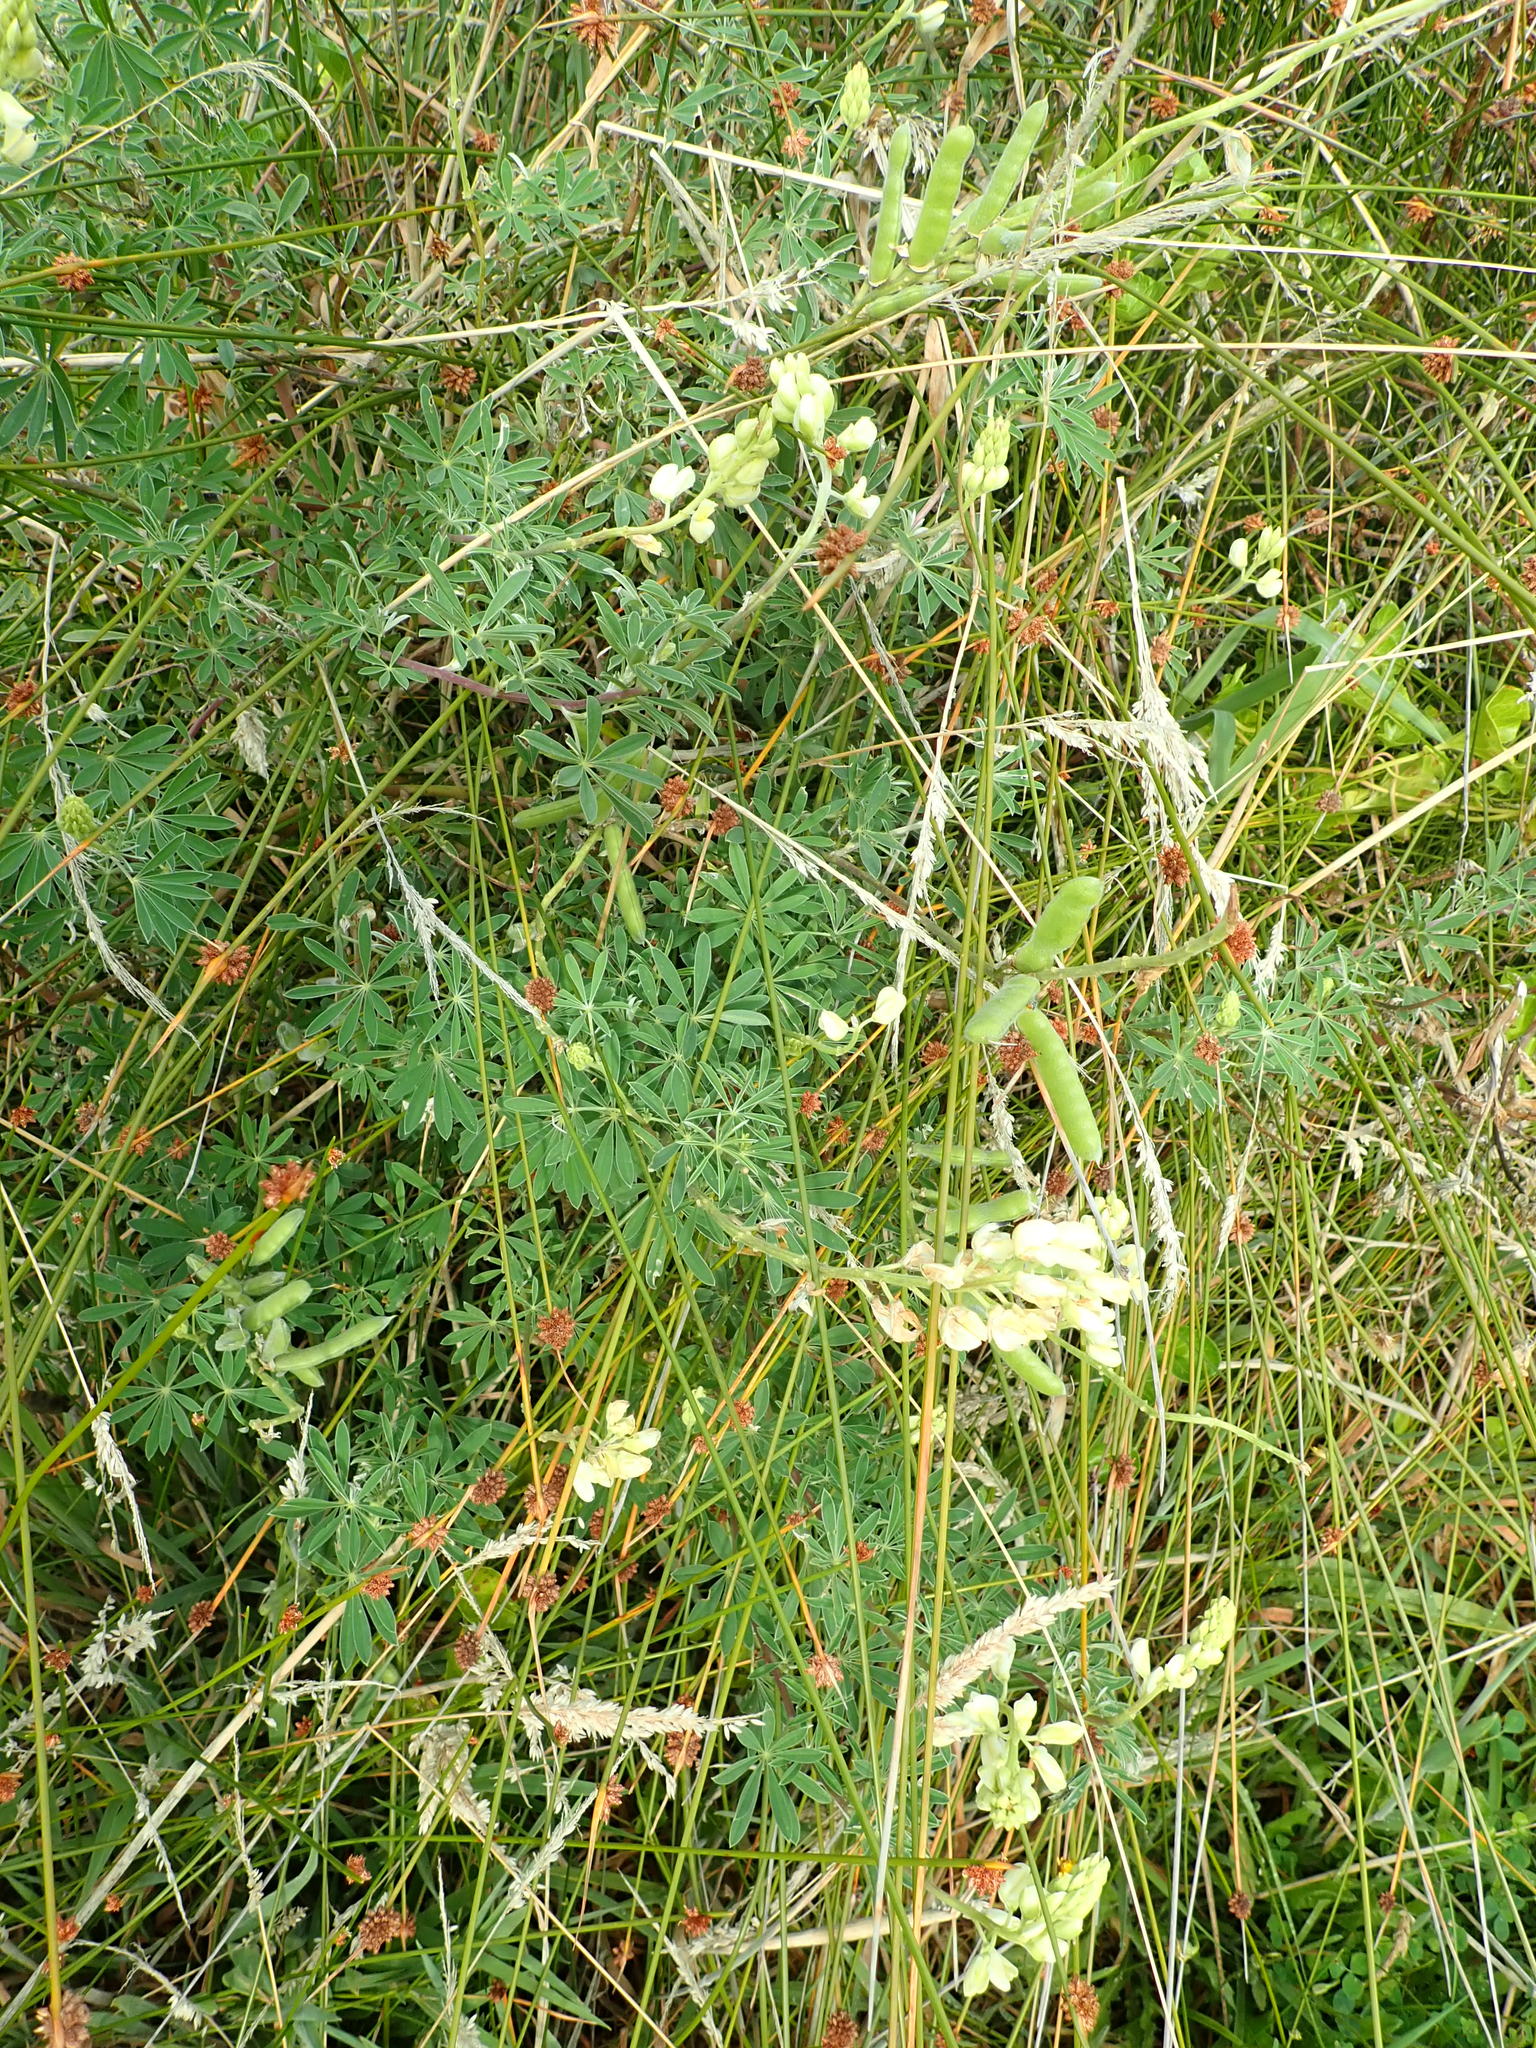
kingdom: Plantae
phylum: Tracheophyta
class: Magnoliopsida
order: Fabales
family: Fabaceae
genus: Lupinus
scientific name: Lupinus arboreus
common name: Yellow bush lupine
